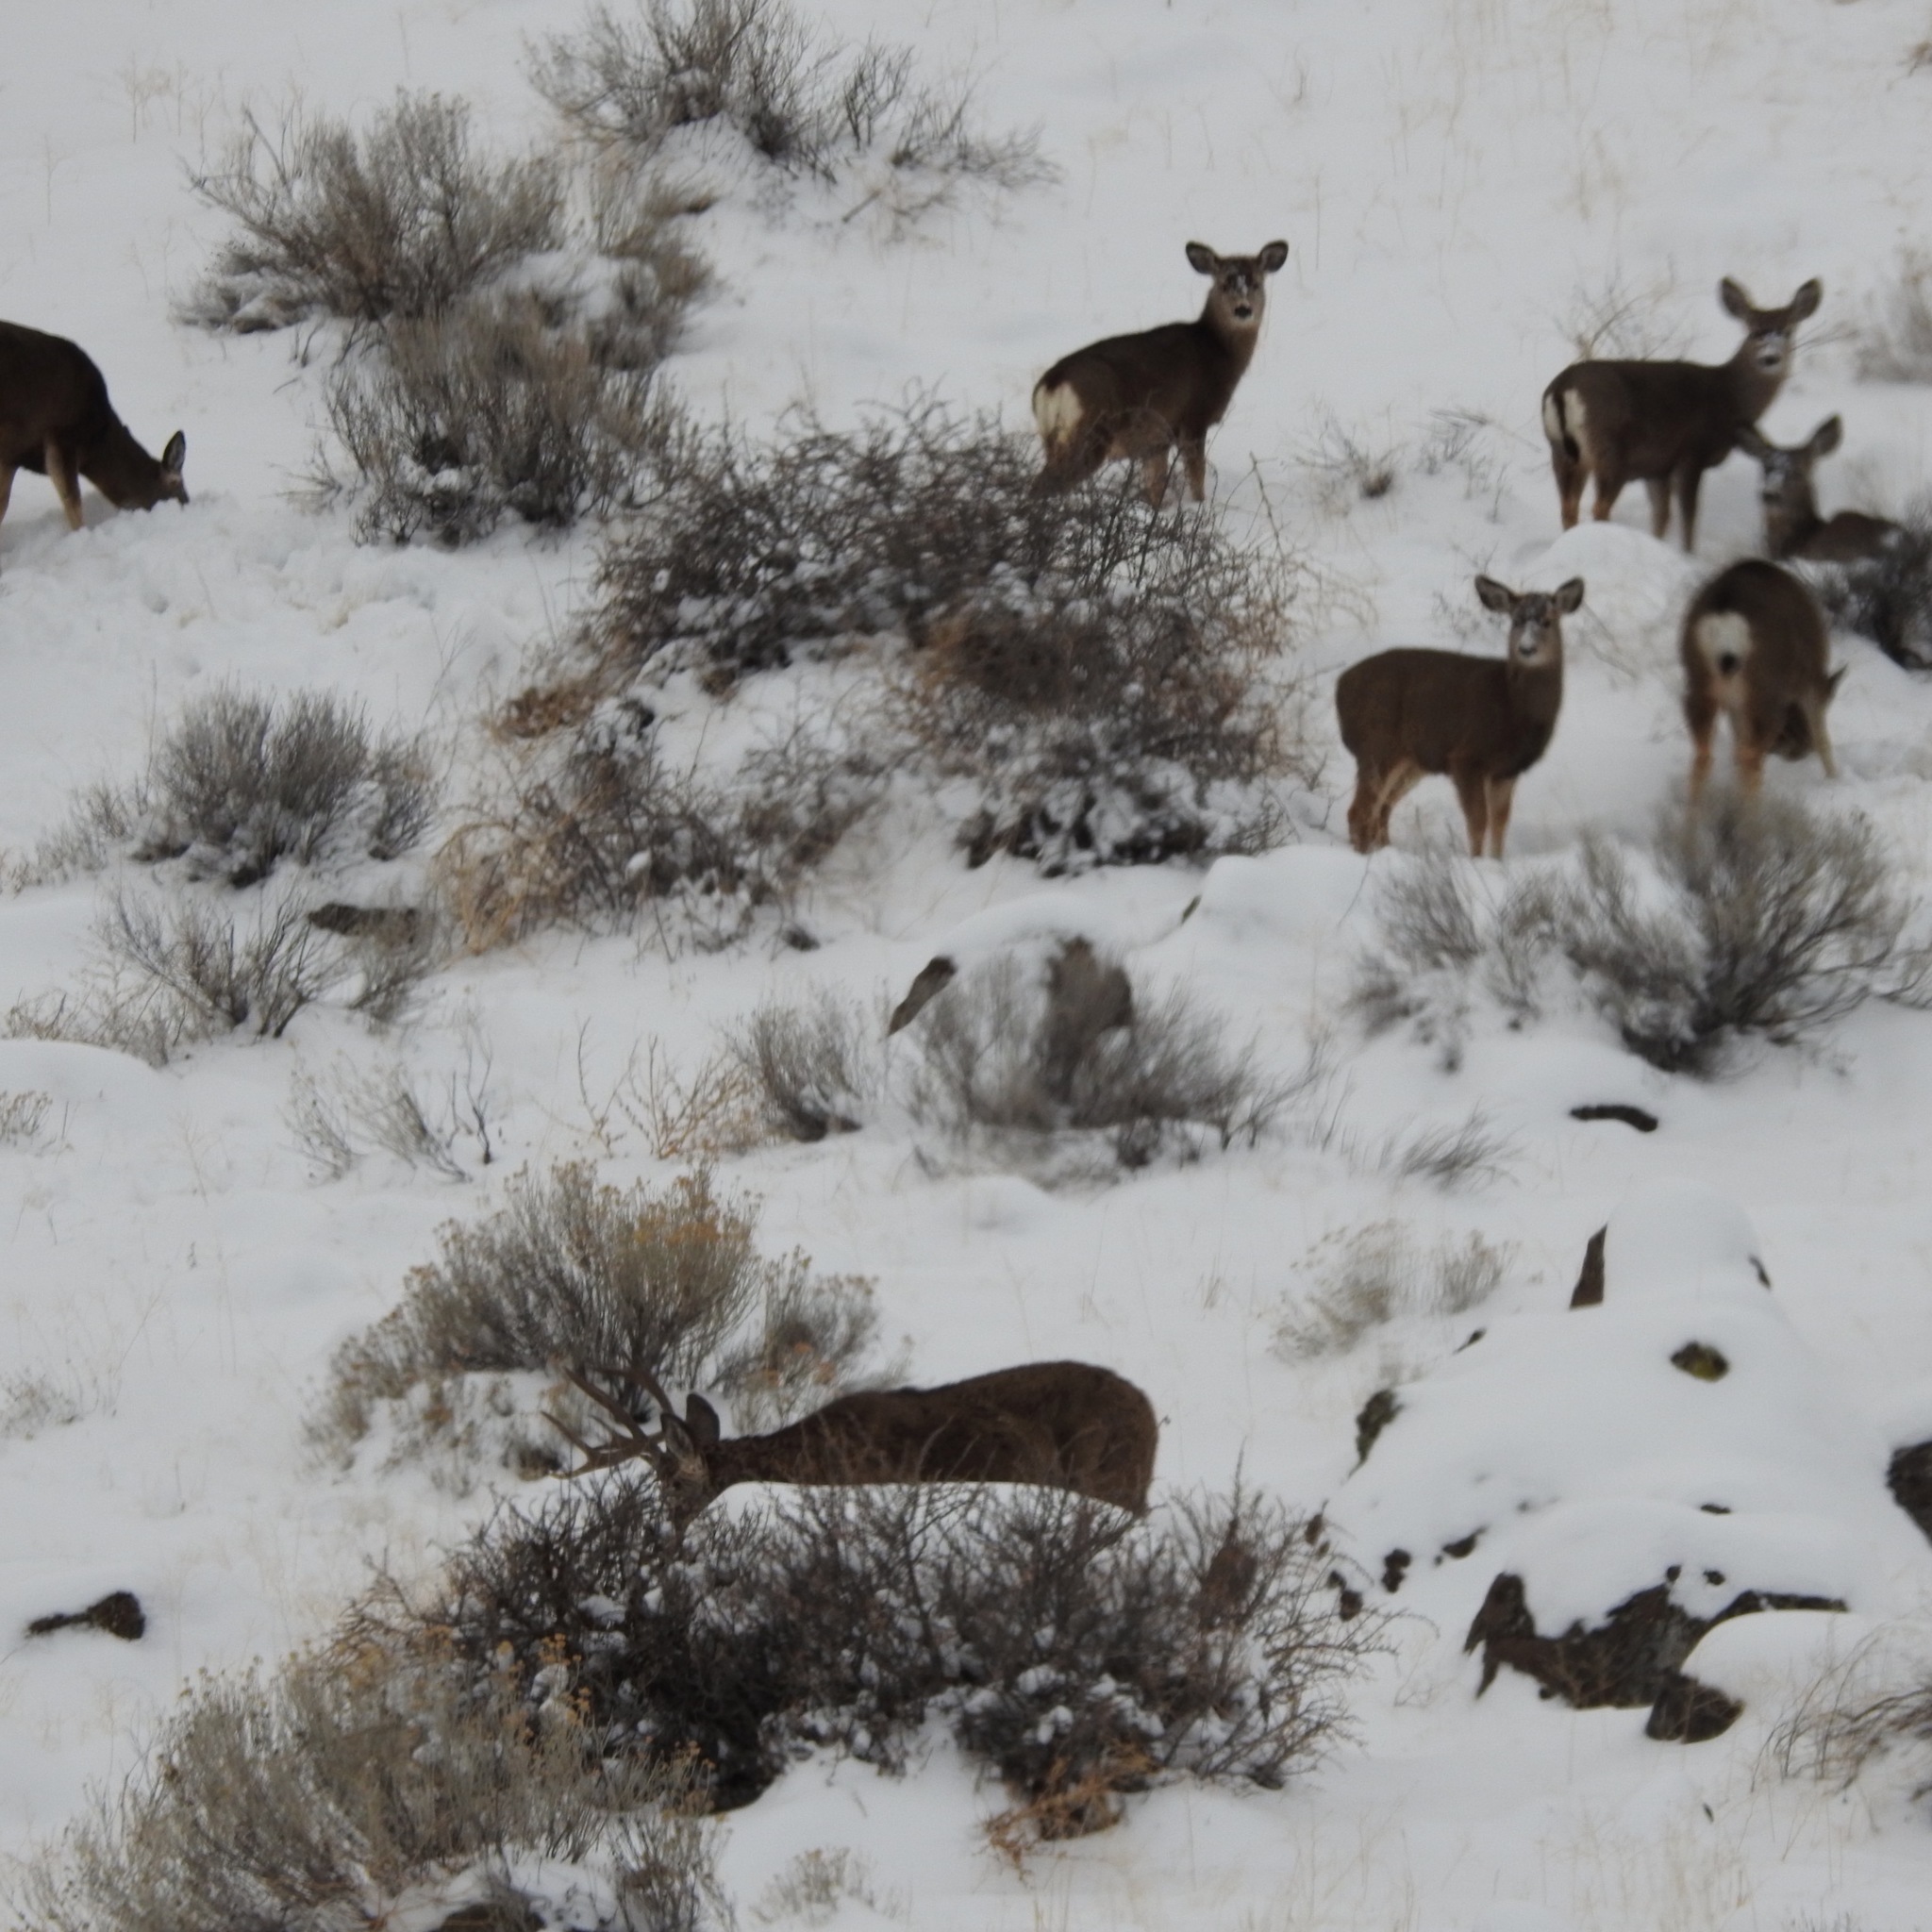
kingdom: Animalia
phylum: Chordata
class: Mammalia
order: Artiodactyla
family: Cervidae
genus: Odocoileus
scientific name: Odocoileus hemionus
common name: Mule deer
